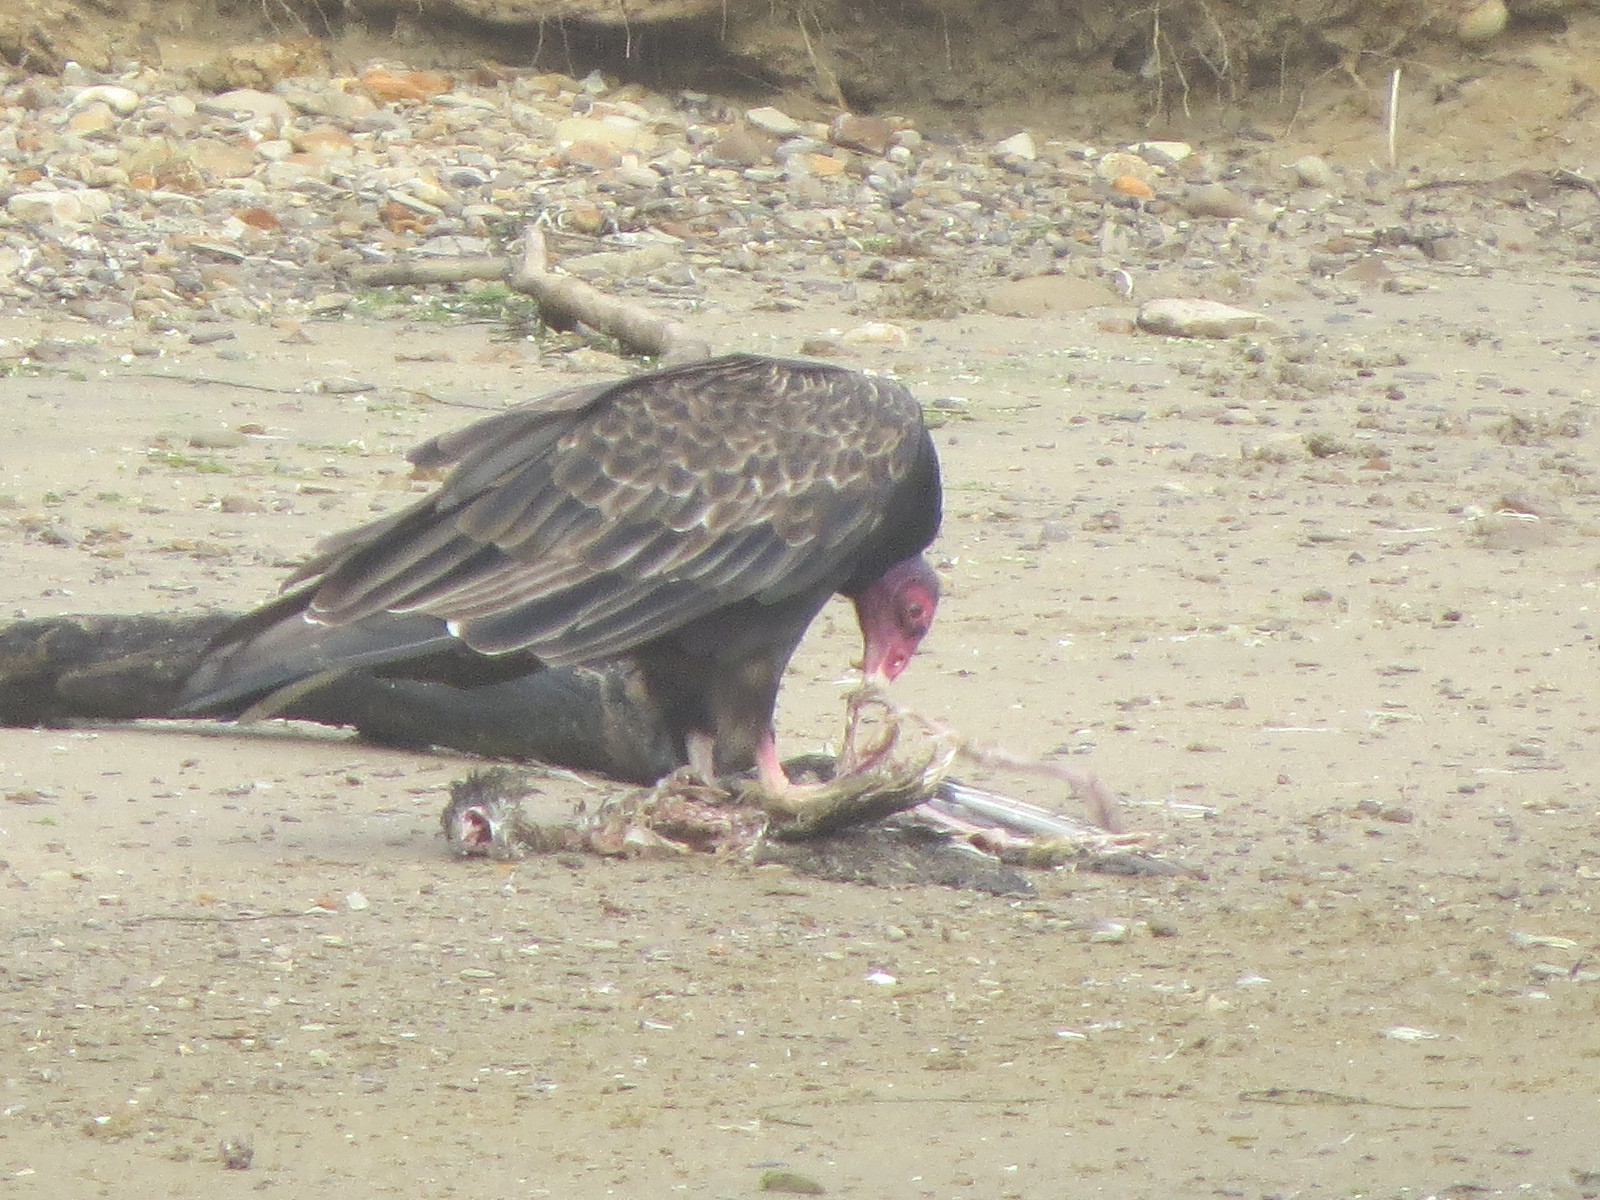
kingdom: Animalia
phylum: Chordata
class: Aves
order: Accipitriformes
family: Cathartidae
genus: Cathartes
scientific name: Cathartes aura
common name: Turkey vulture
